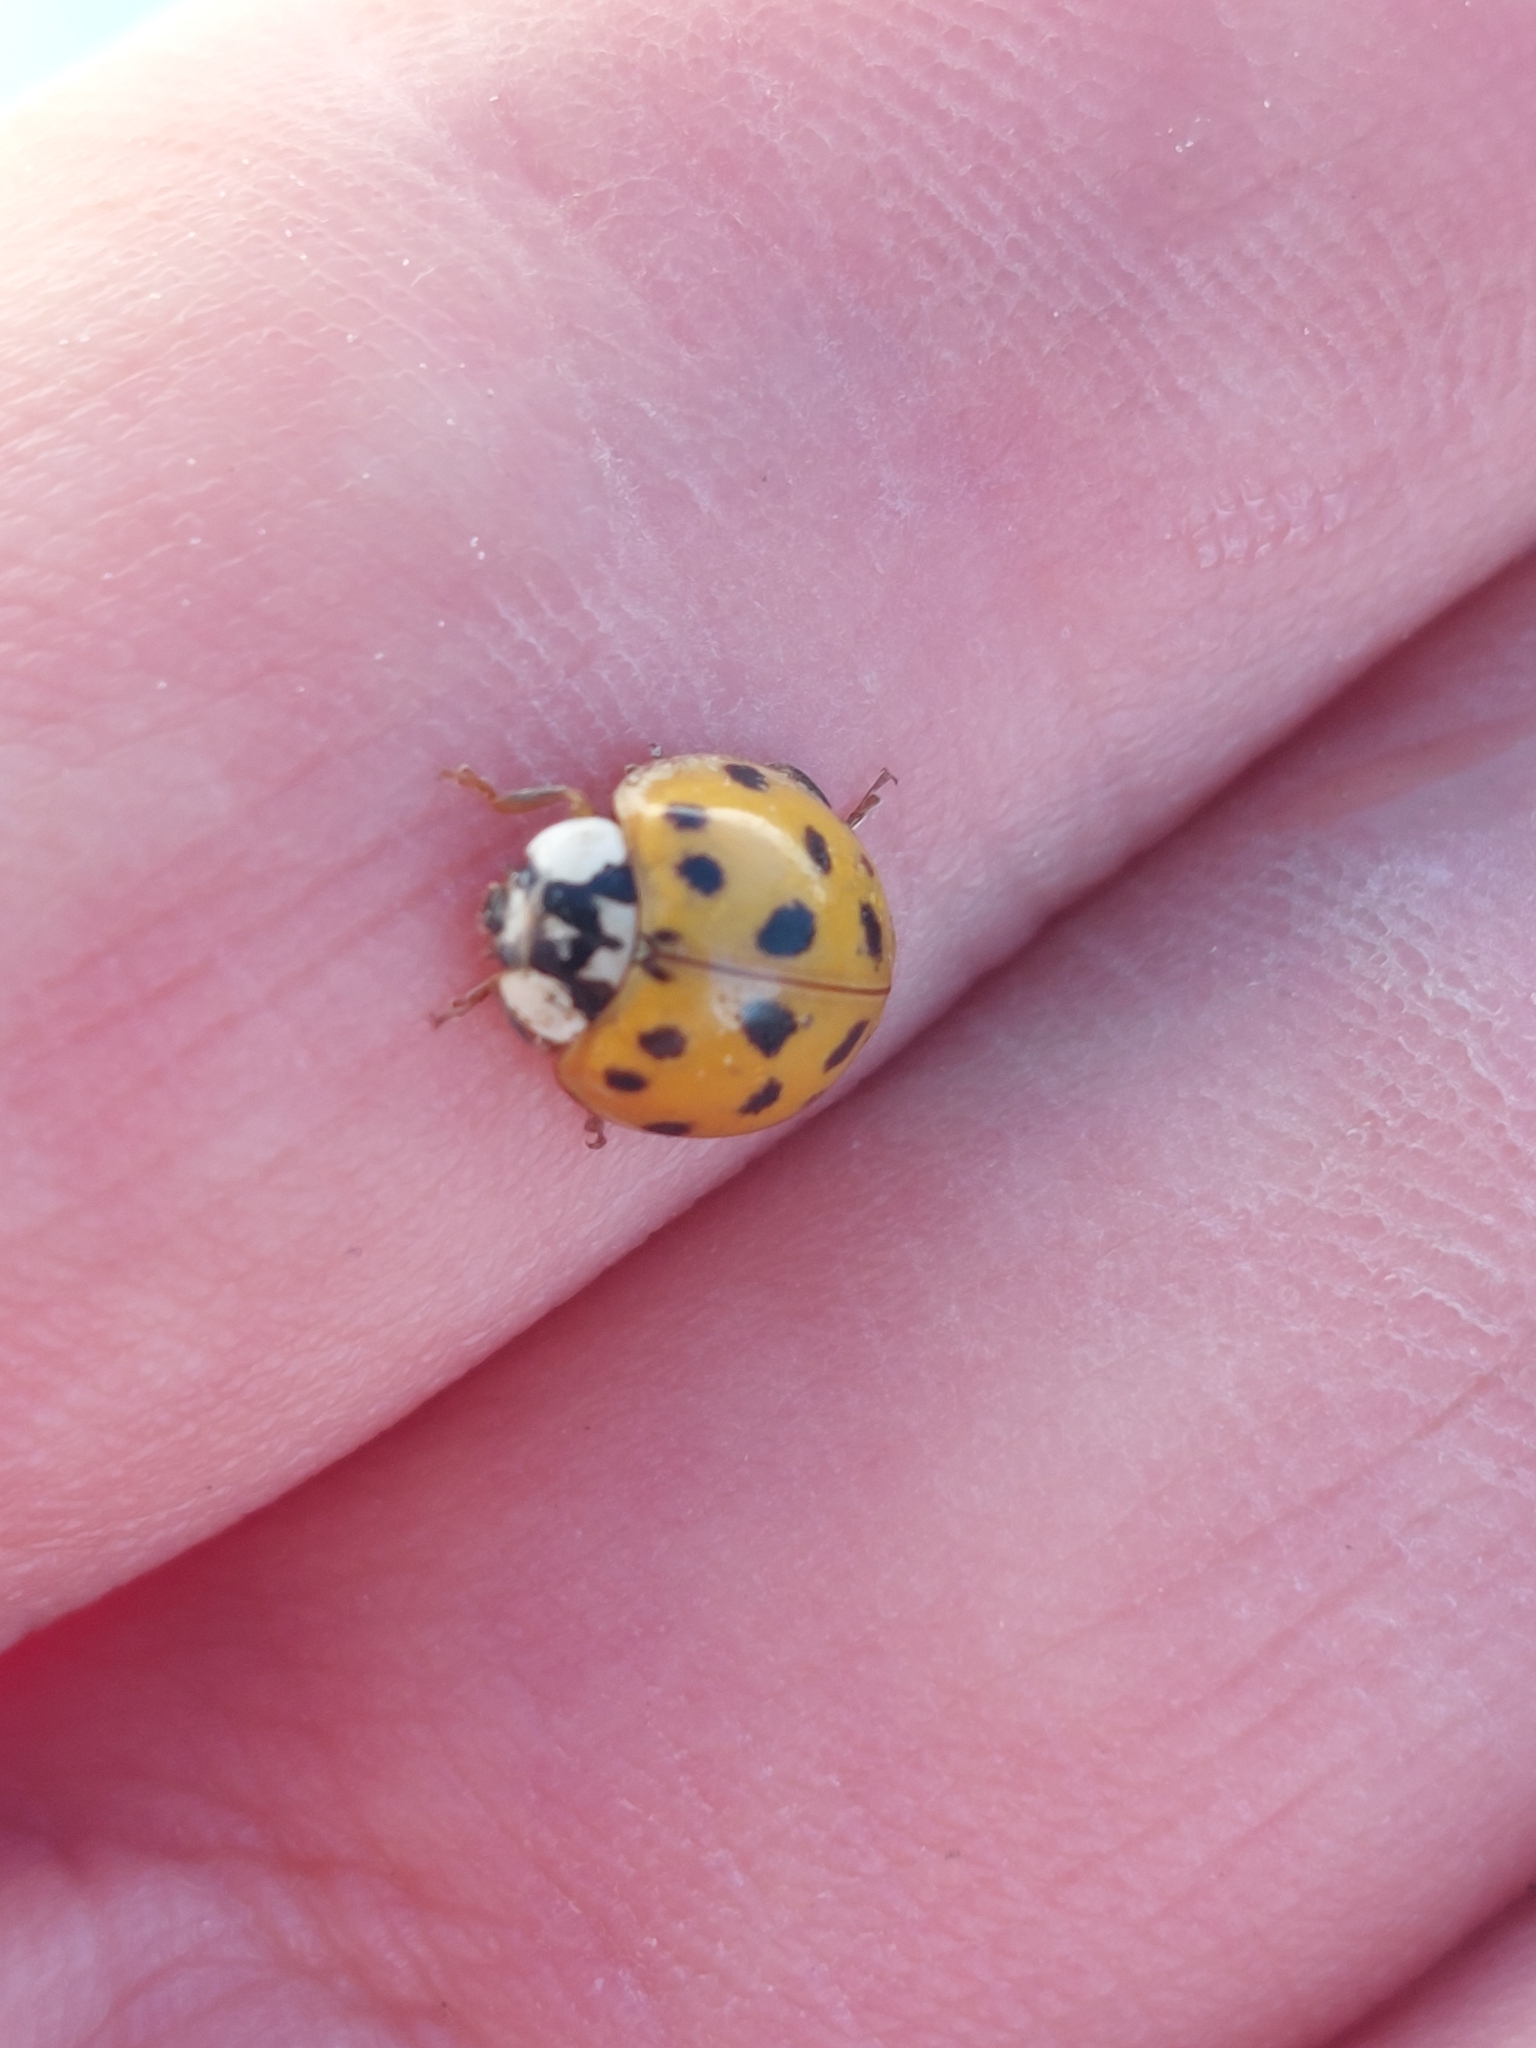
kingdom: Animalia
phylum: Arthropoda
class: Insecta
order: Coleoptera
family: Coccinellidae
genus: Harmonia
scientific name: Harmonia axyridis
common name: Harlequin ladybird
